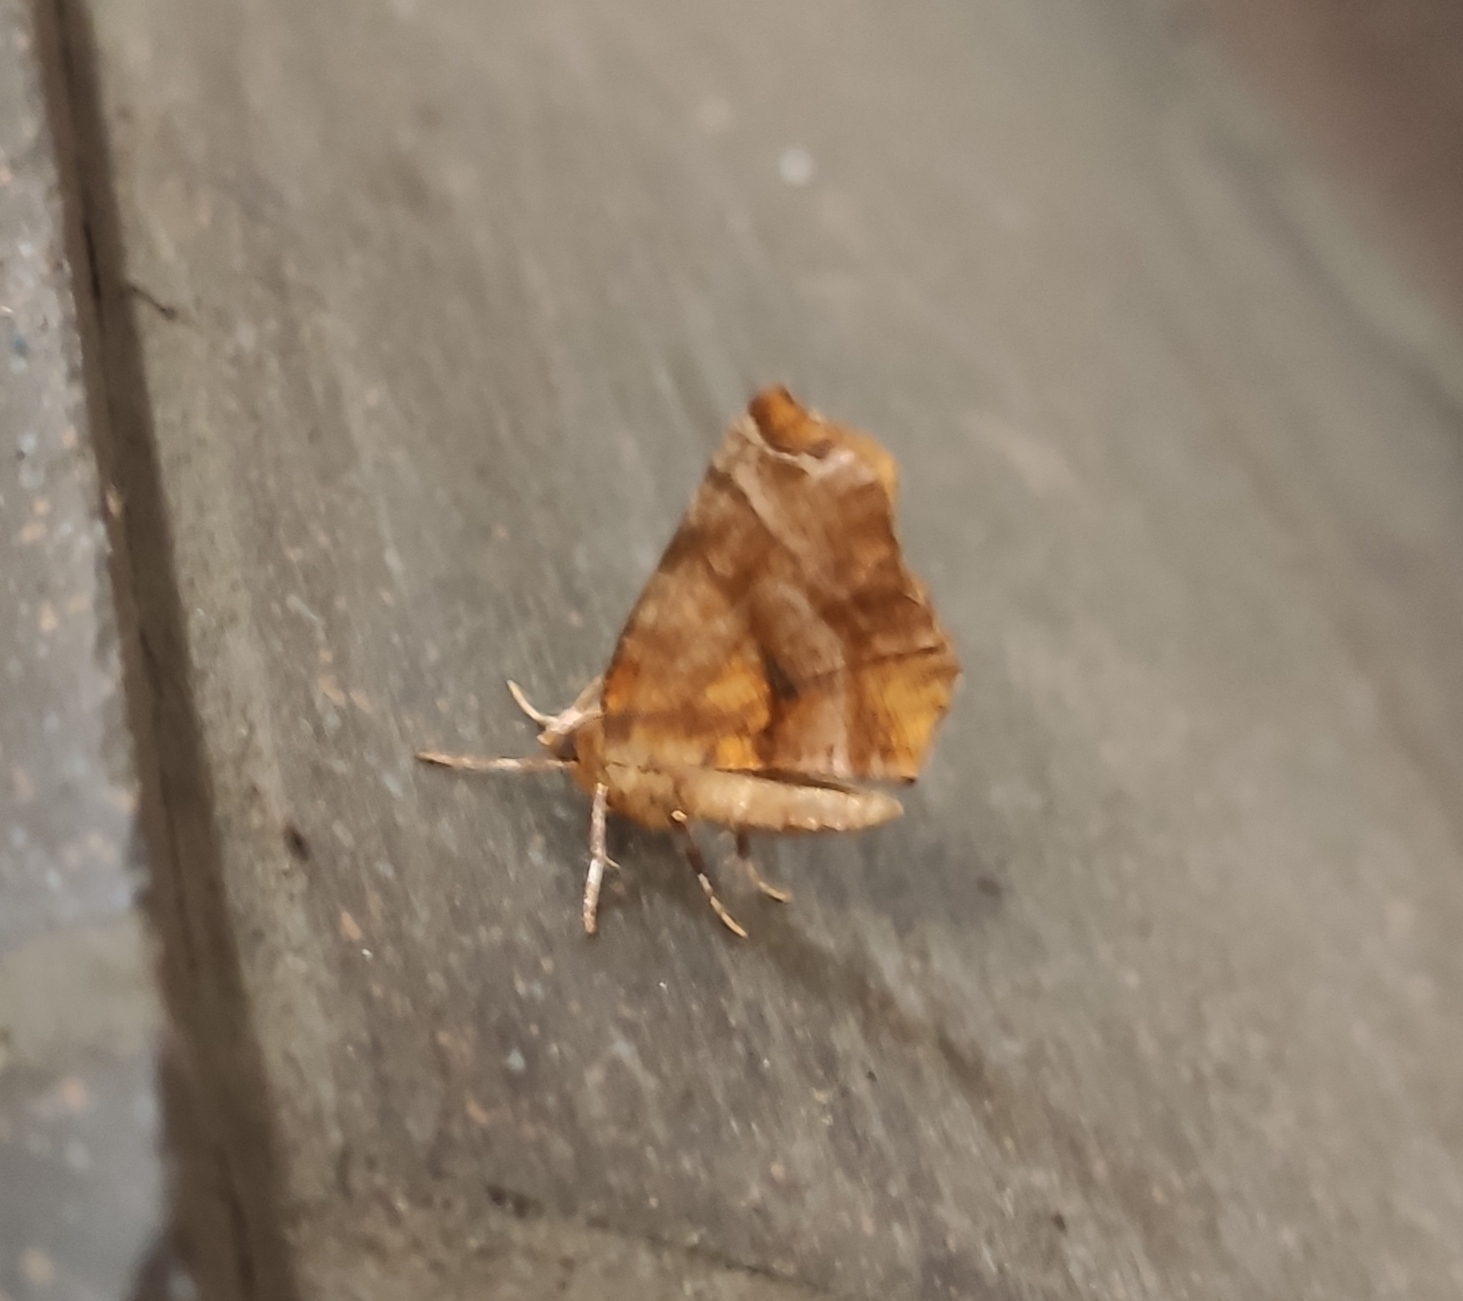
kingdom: Animalia
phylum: Arthropoda
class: Insecta
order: Lepidoptera
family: Geometridae
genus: Selenia
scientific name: Selenia dentaria
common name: Early thorn
